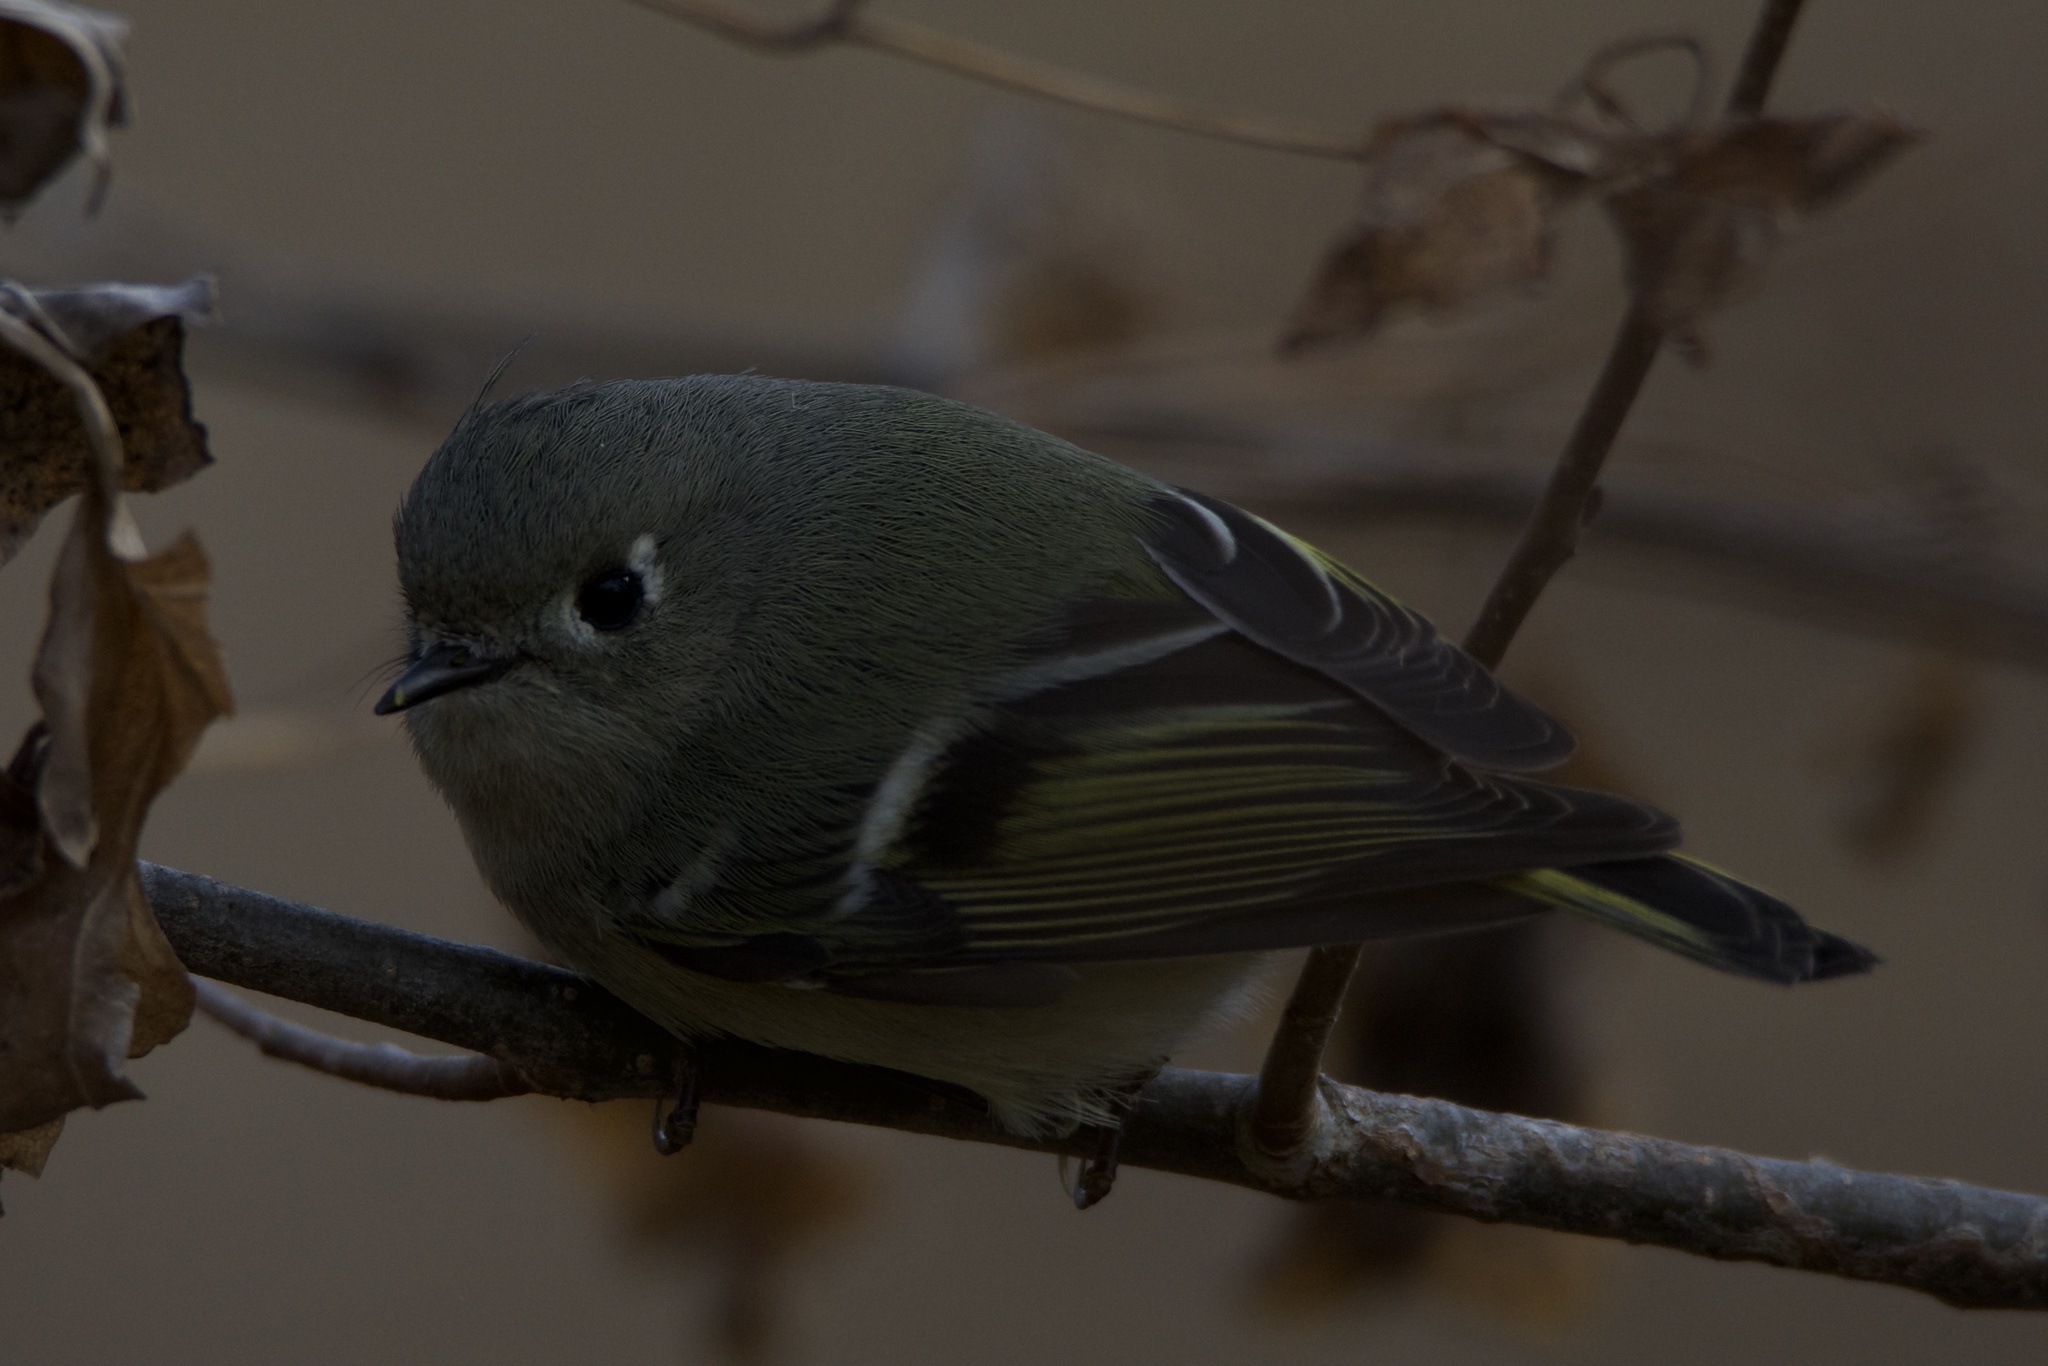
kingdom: Animalia
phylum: Chordata
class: Aves
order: Passeriformes
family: Regulidae
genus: Regulus
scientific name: Regulus calendula
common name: Ruby-crowned kinglet
